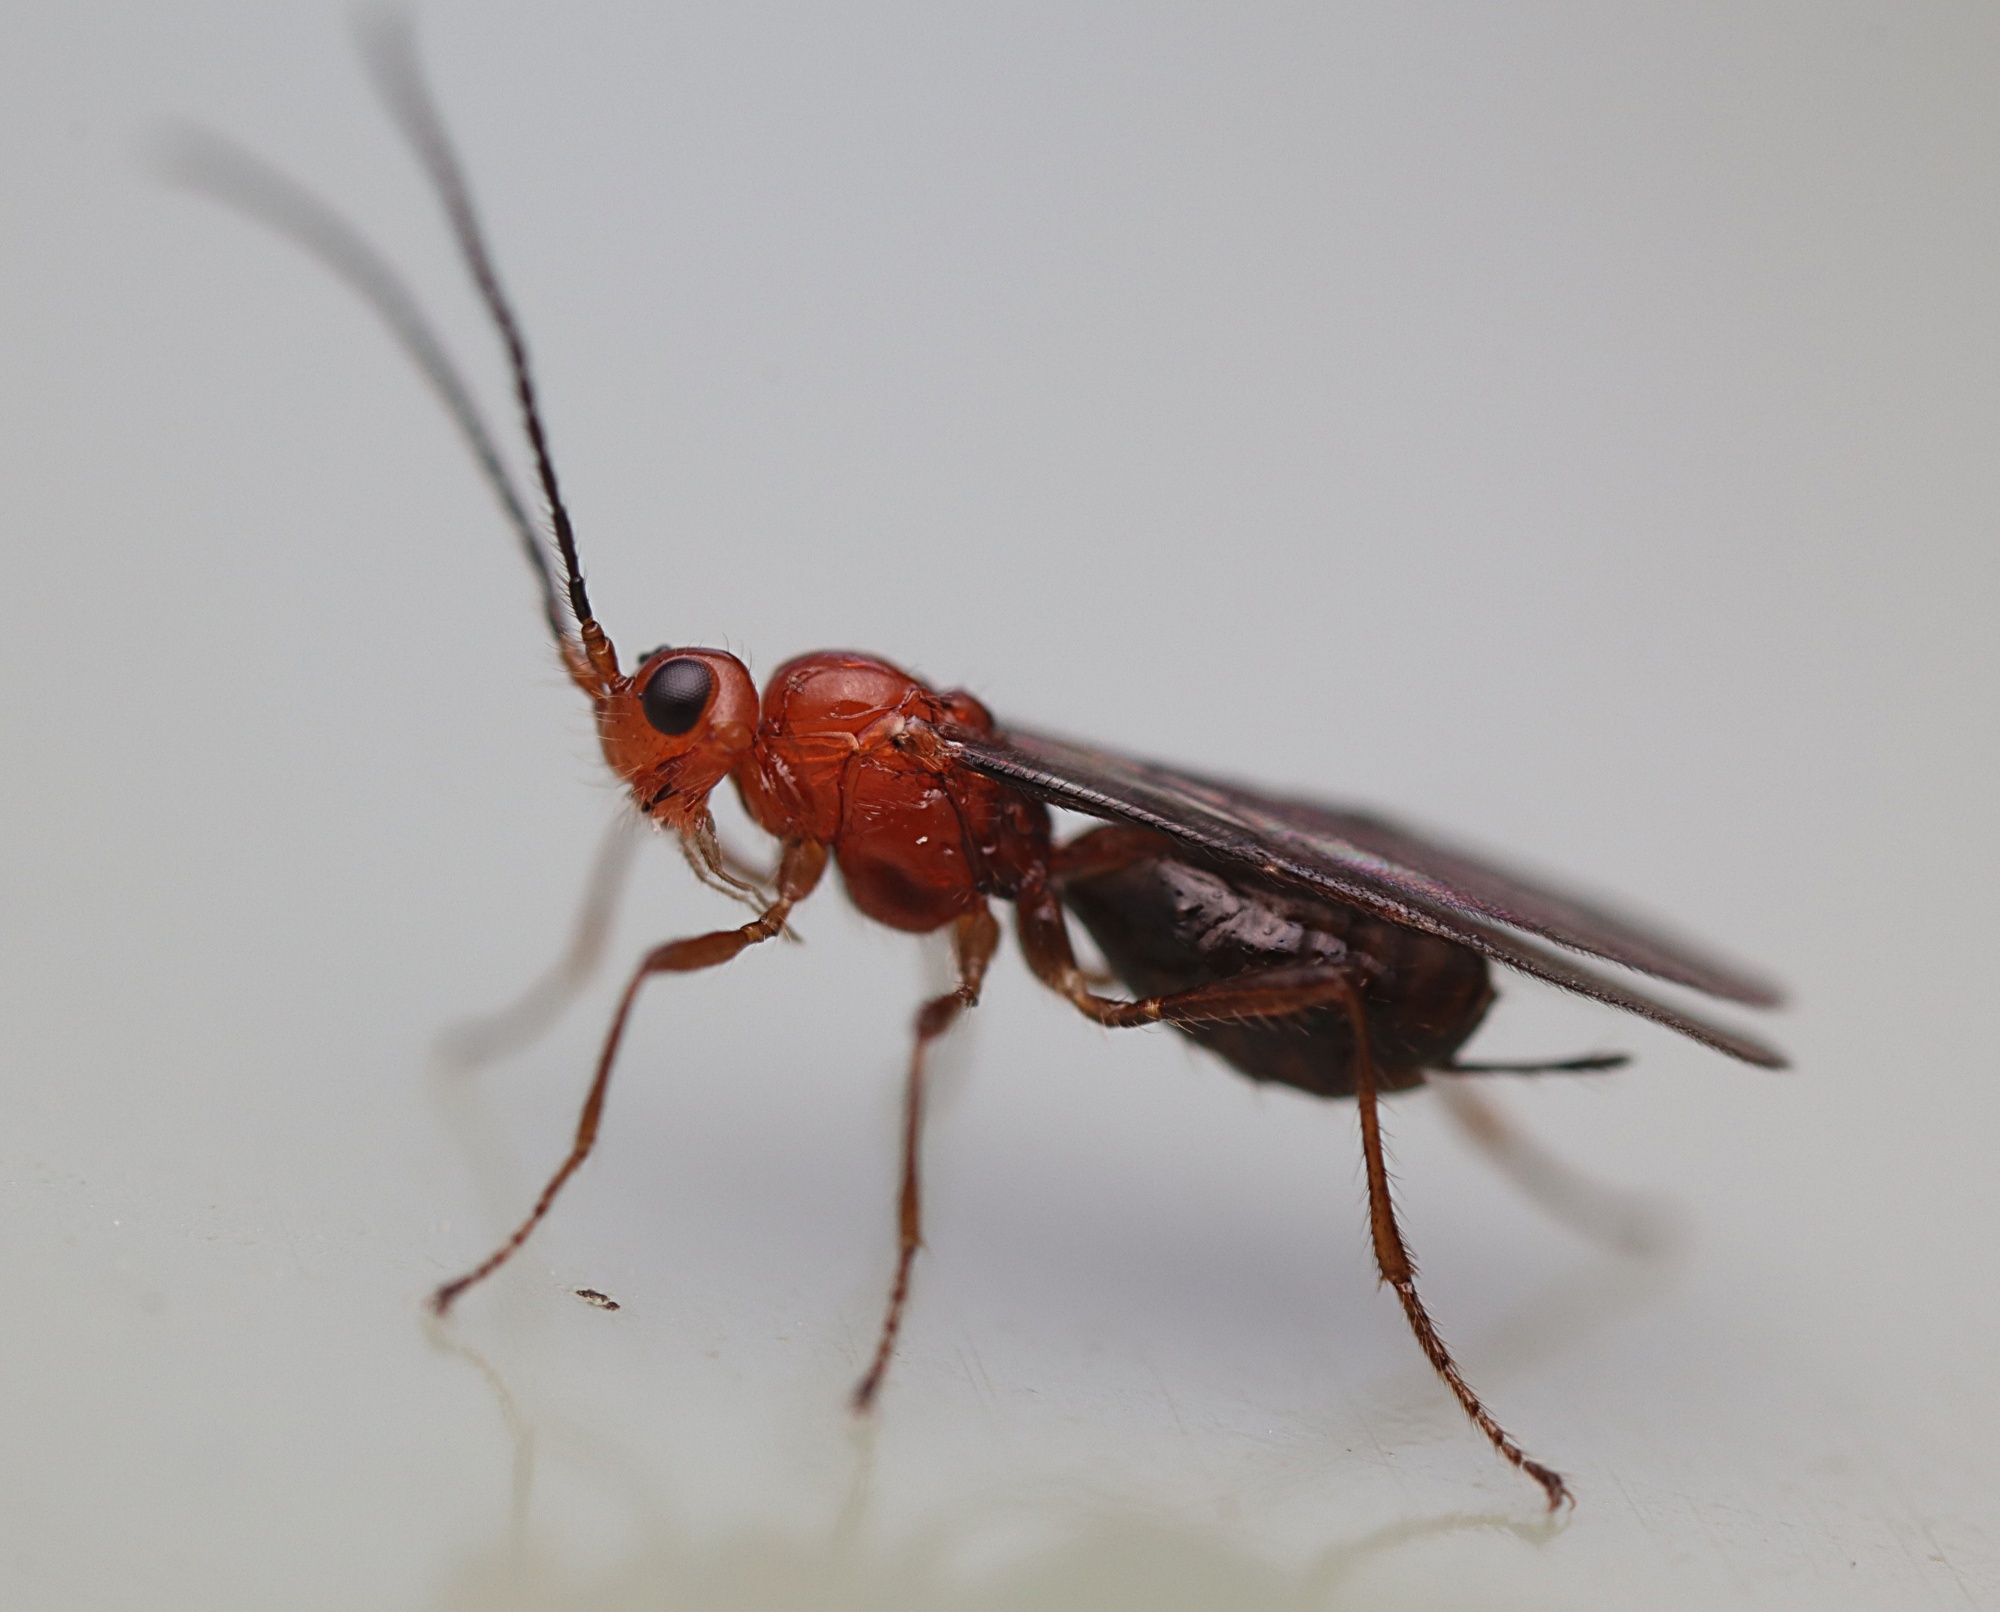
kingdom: Animalia
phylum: Arthropoda
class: Insecta
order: Hymenoptera
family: Braconidae
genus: Asobara
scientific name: Asobara antipoda
